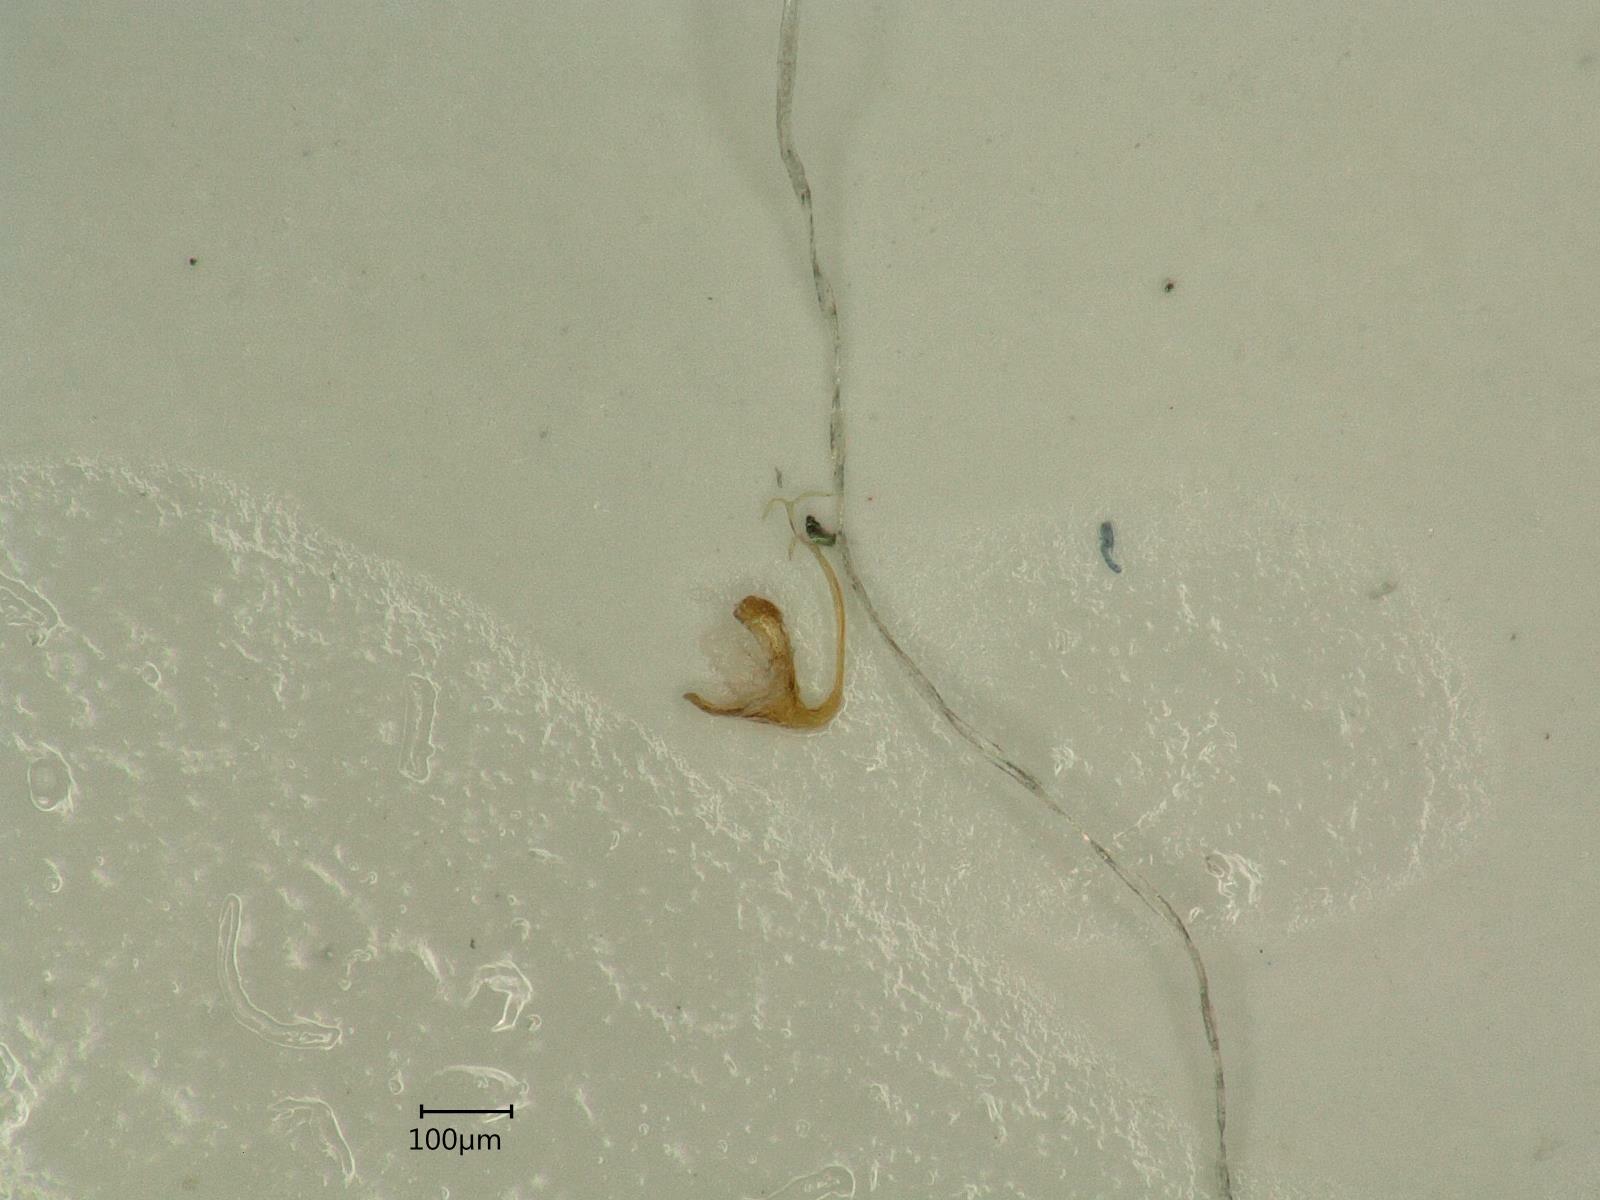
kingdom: Animalia
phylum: Arthropoda
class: Insecta
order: Hemiptera
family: Cicadellidae
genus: Eupteryx
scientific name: Eupteryx calcarata
